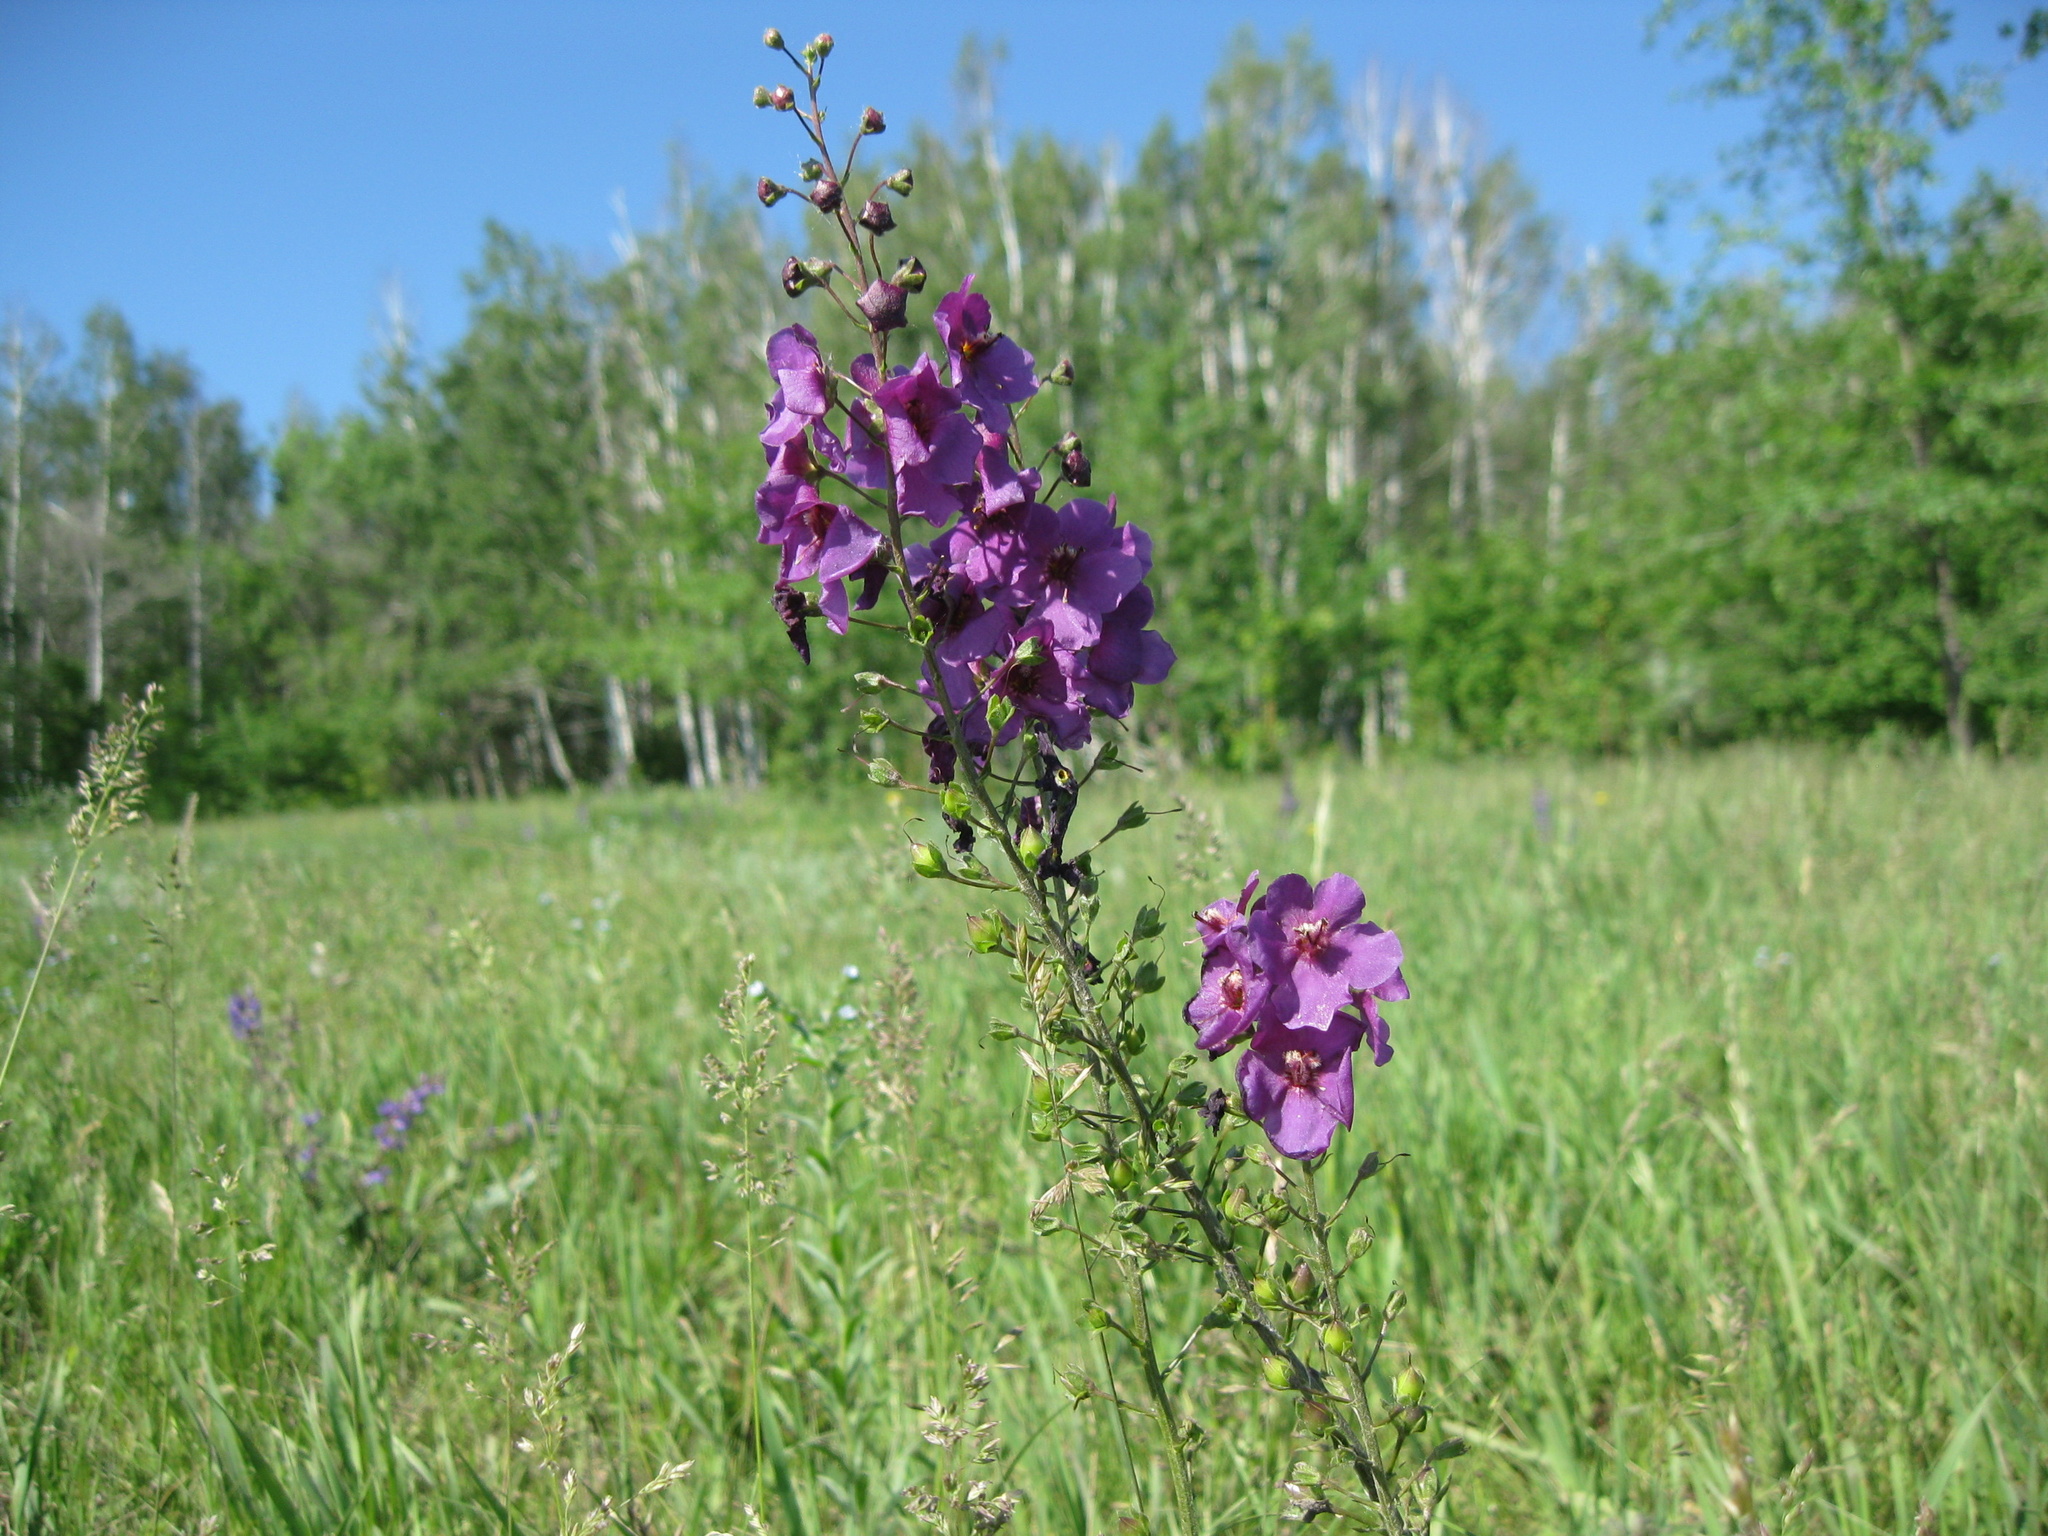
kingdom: Plantae
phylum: Tracheophyta
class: Magnoliopsida
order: Lamiales
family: Scrophulariaceae
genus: Verbascum
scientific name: Verbascum phoeniceum
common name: Purple mullein
